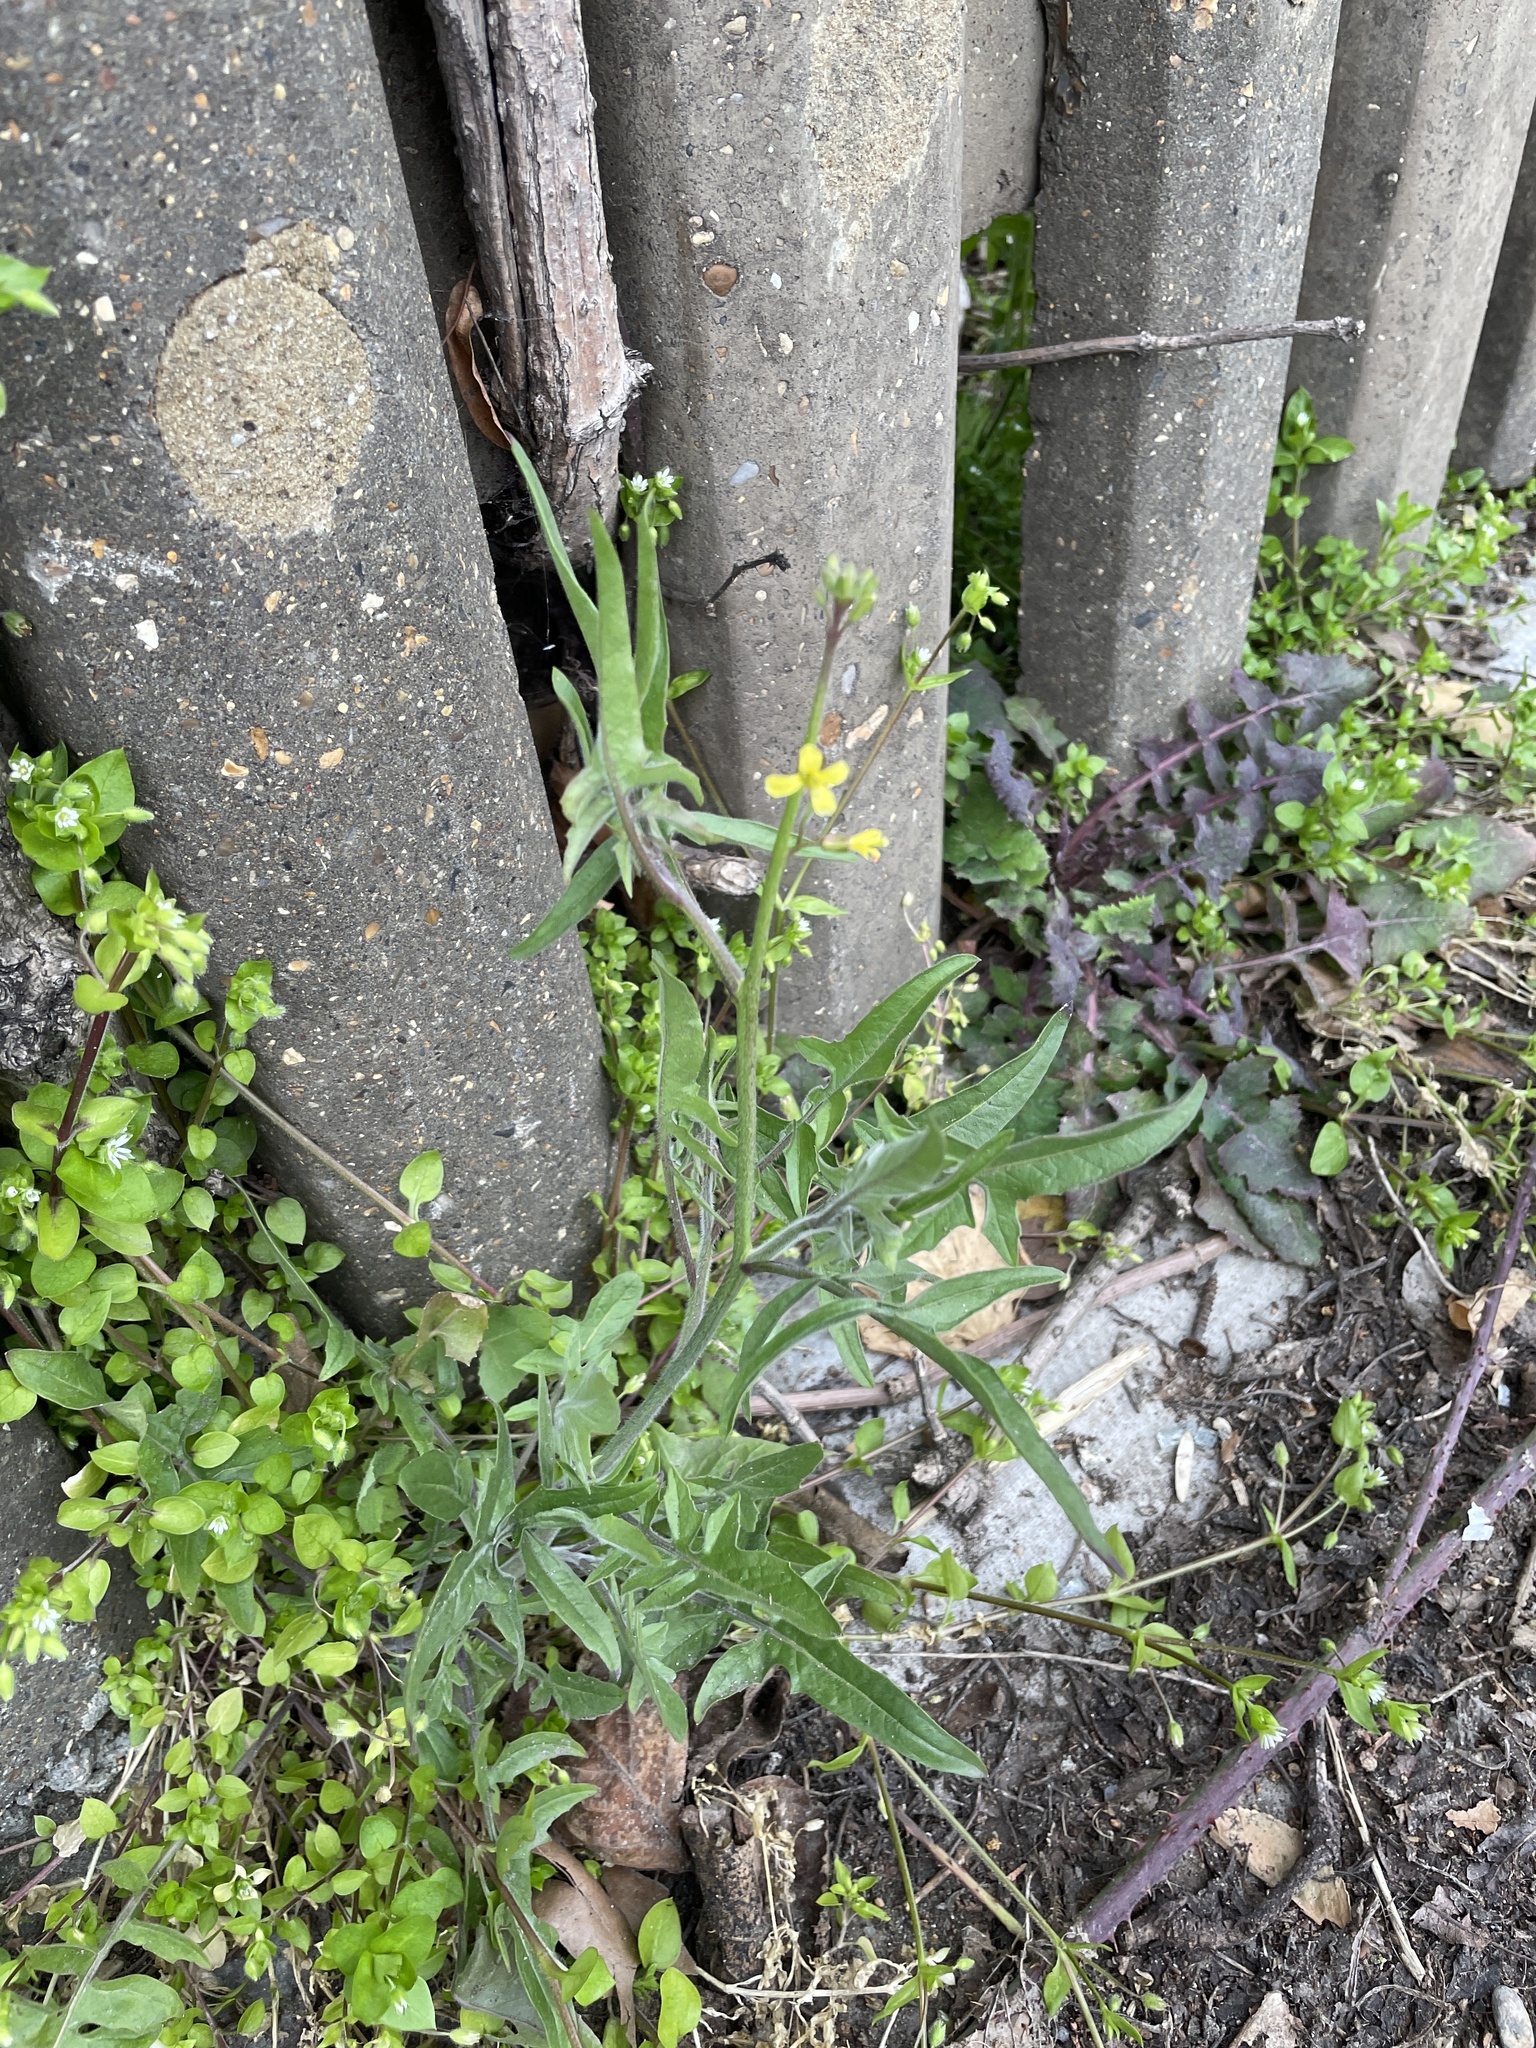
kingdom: Plantae
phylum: Tracheophyta
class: Magnoliopsida
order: Brassicales
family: Brassicaceae
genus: Sisymbrium
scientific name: Sisymbrium orientale
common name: Eastern rocket
